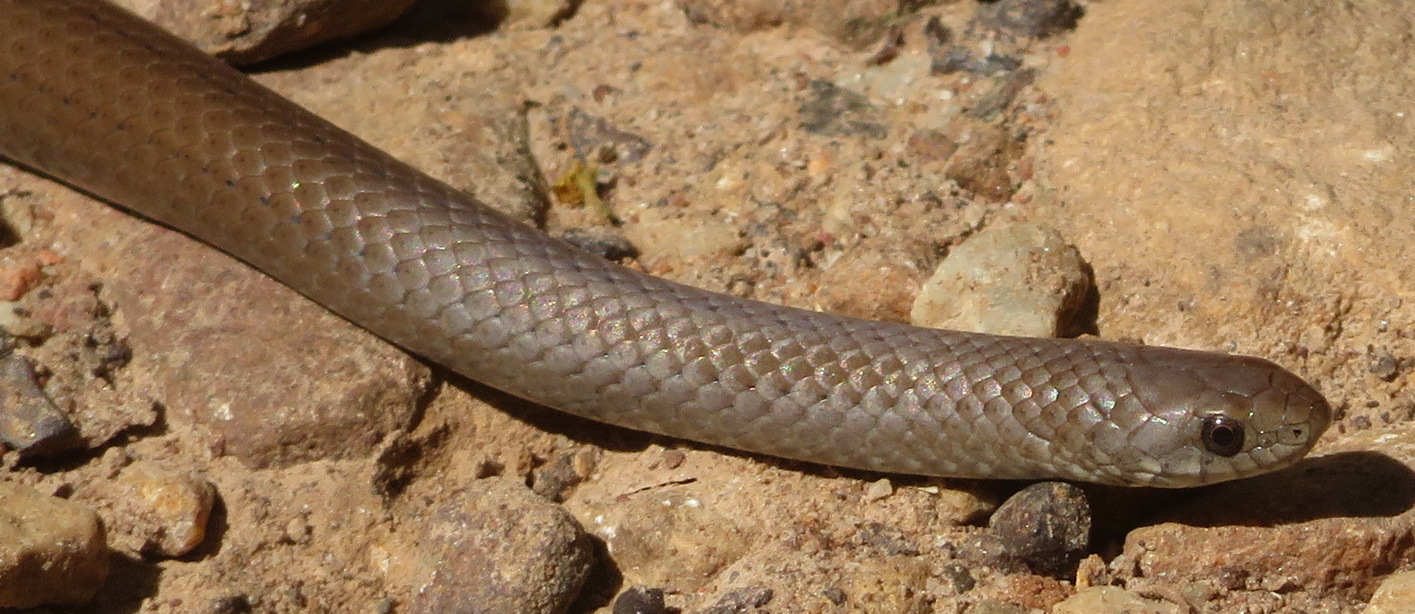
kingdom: Animalia
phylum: Chordata
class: Squamata
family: Pseudoxyrhophiidae
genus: Duberria
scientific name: Duberria lutrix
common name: Common slug eater
